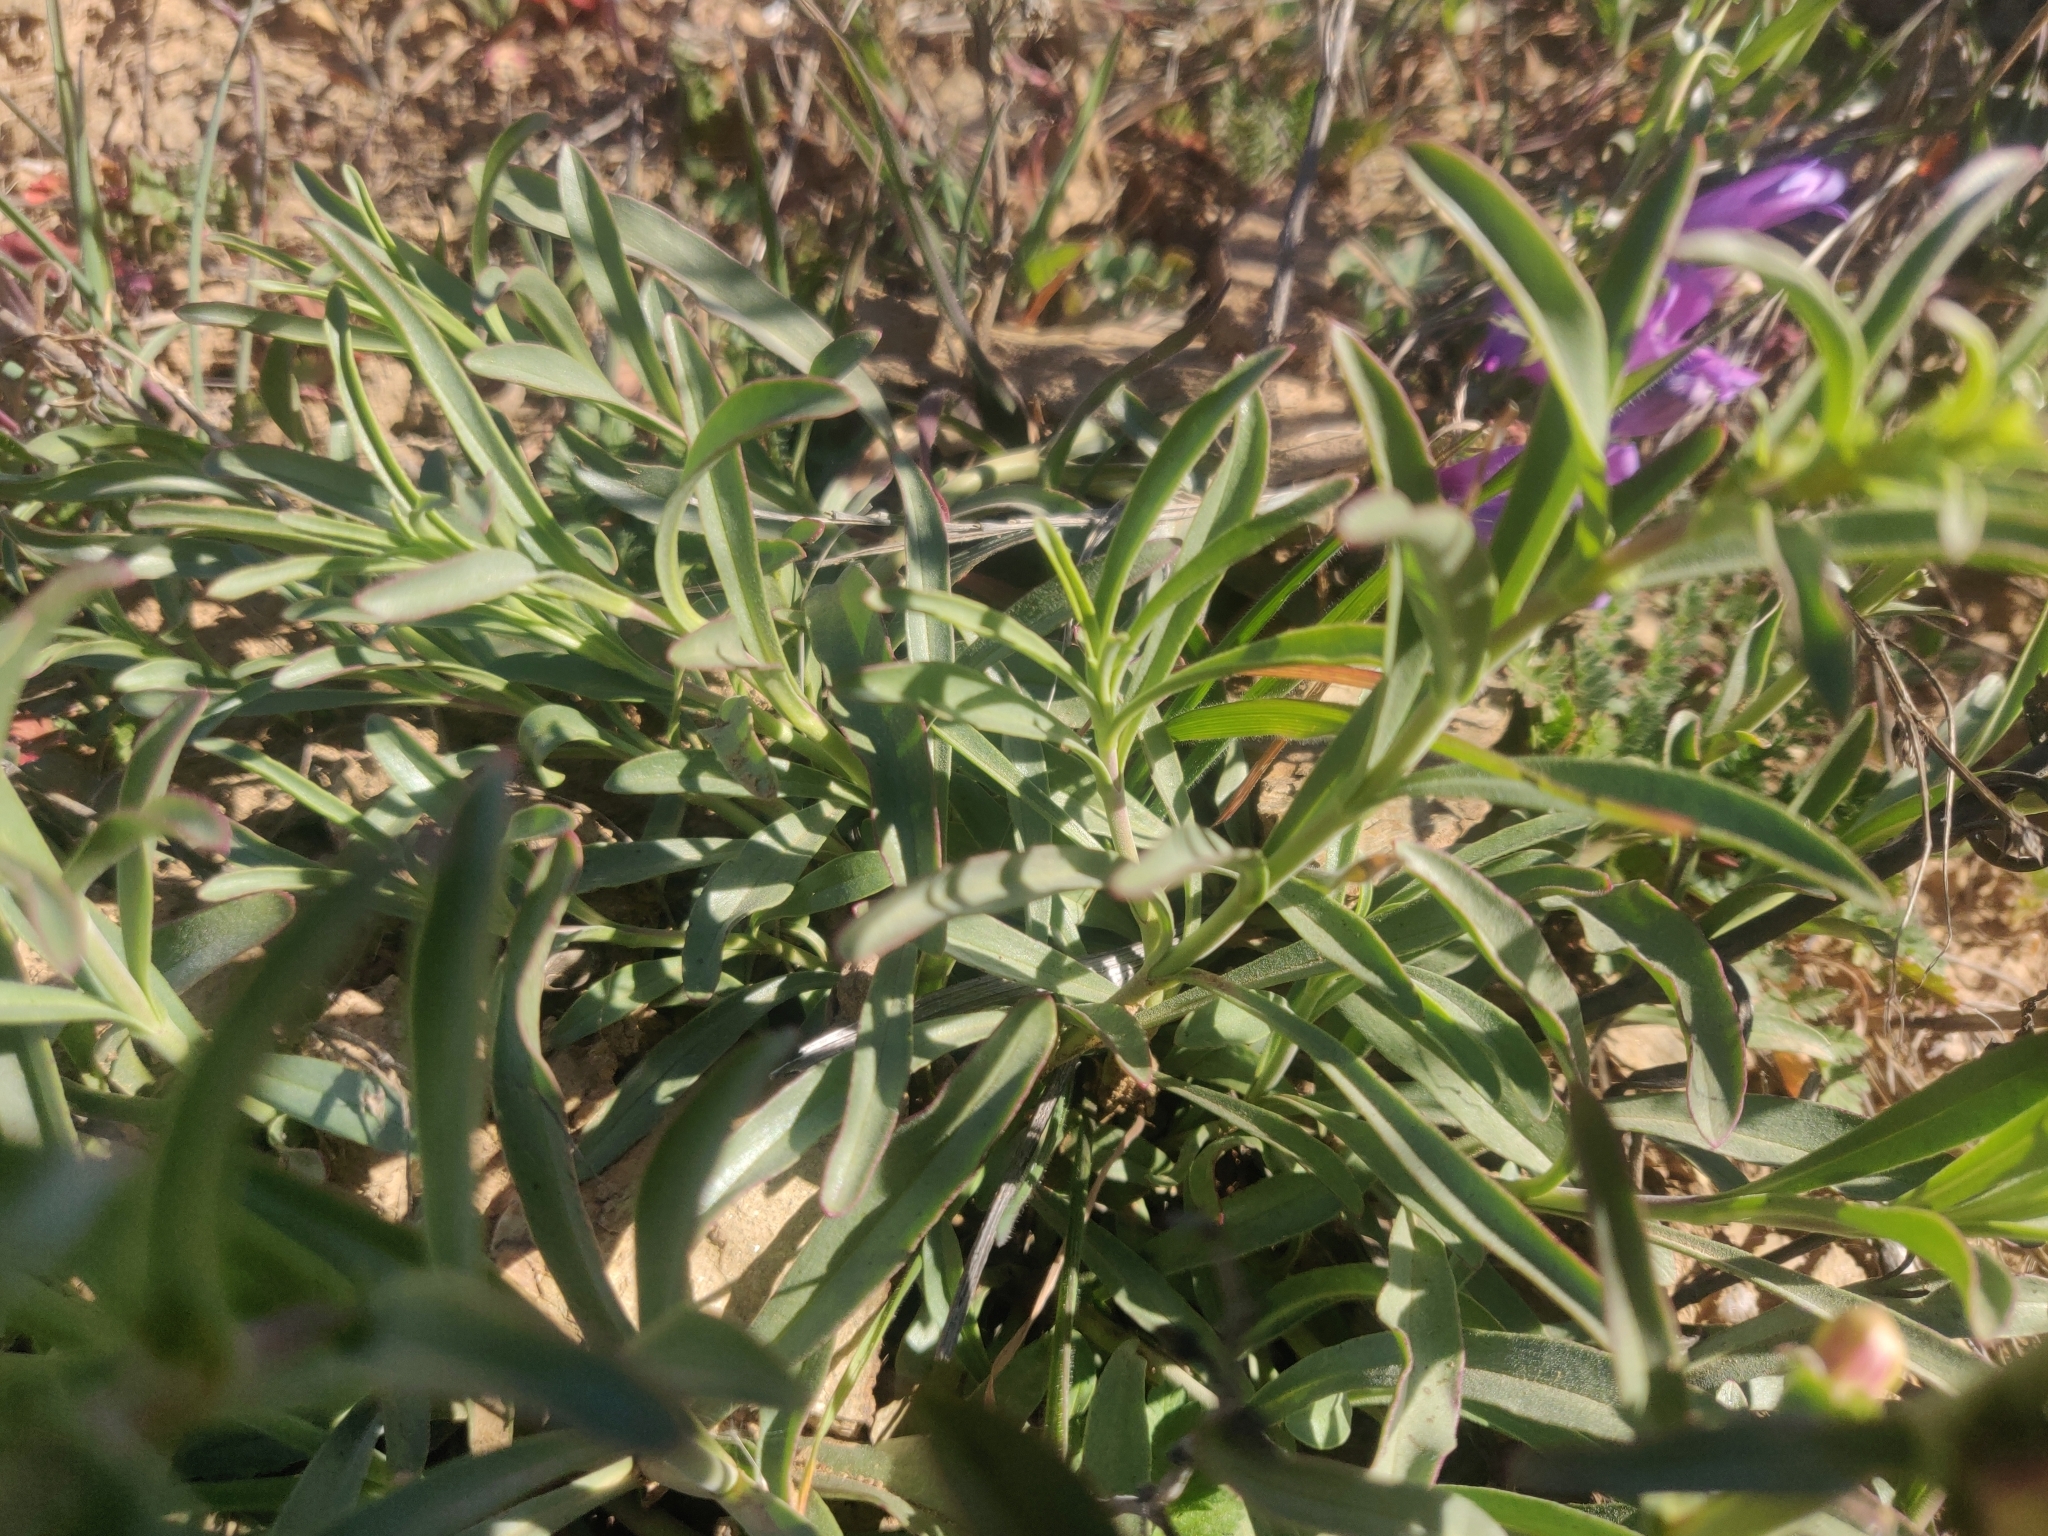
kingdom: Plantae
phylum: Tracheophyta
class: Magnoliopsida
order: Lamiales
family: Plantaginaceae
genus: Penstemon
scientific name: Penstemon heterophyllus
